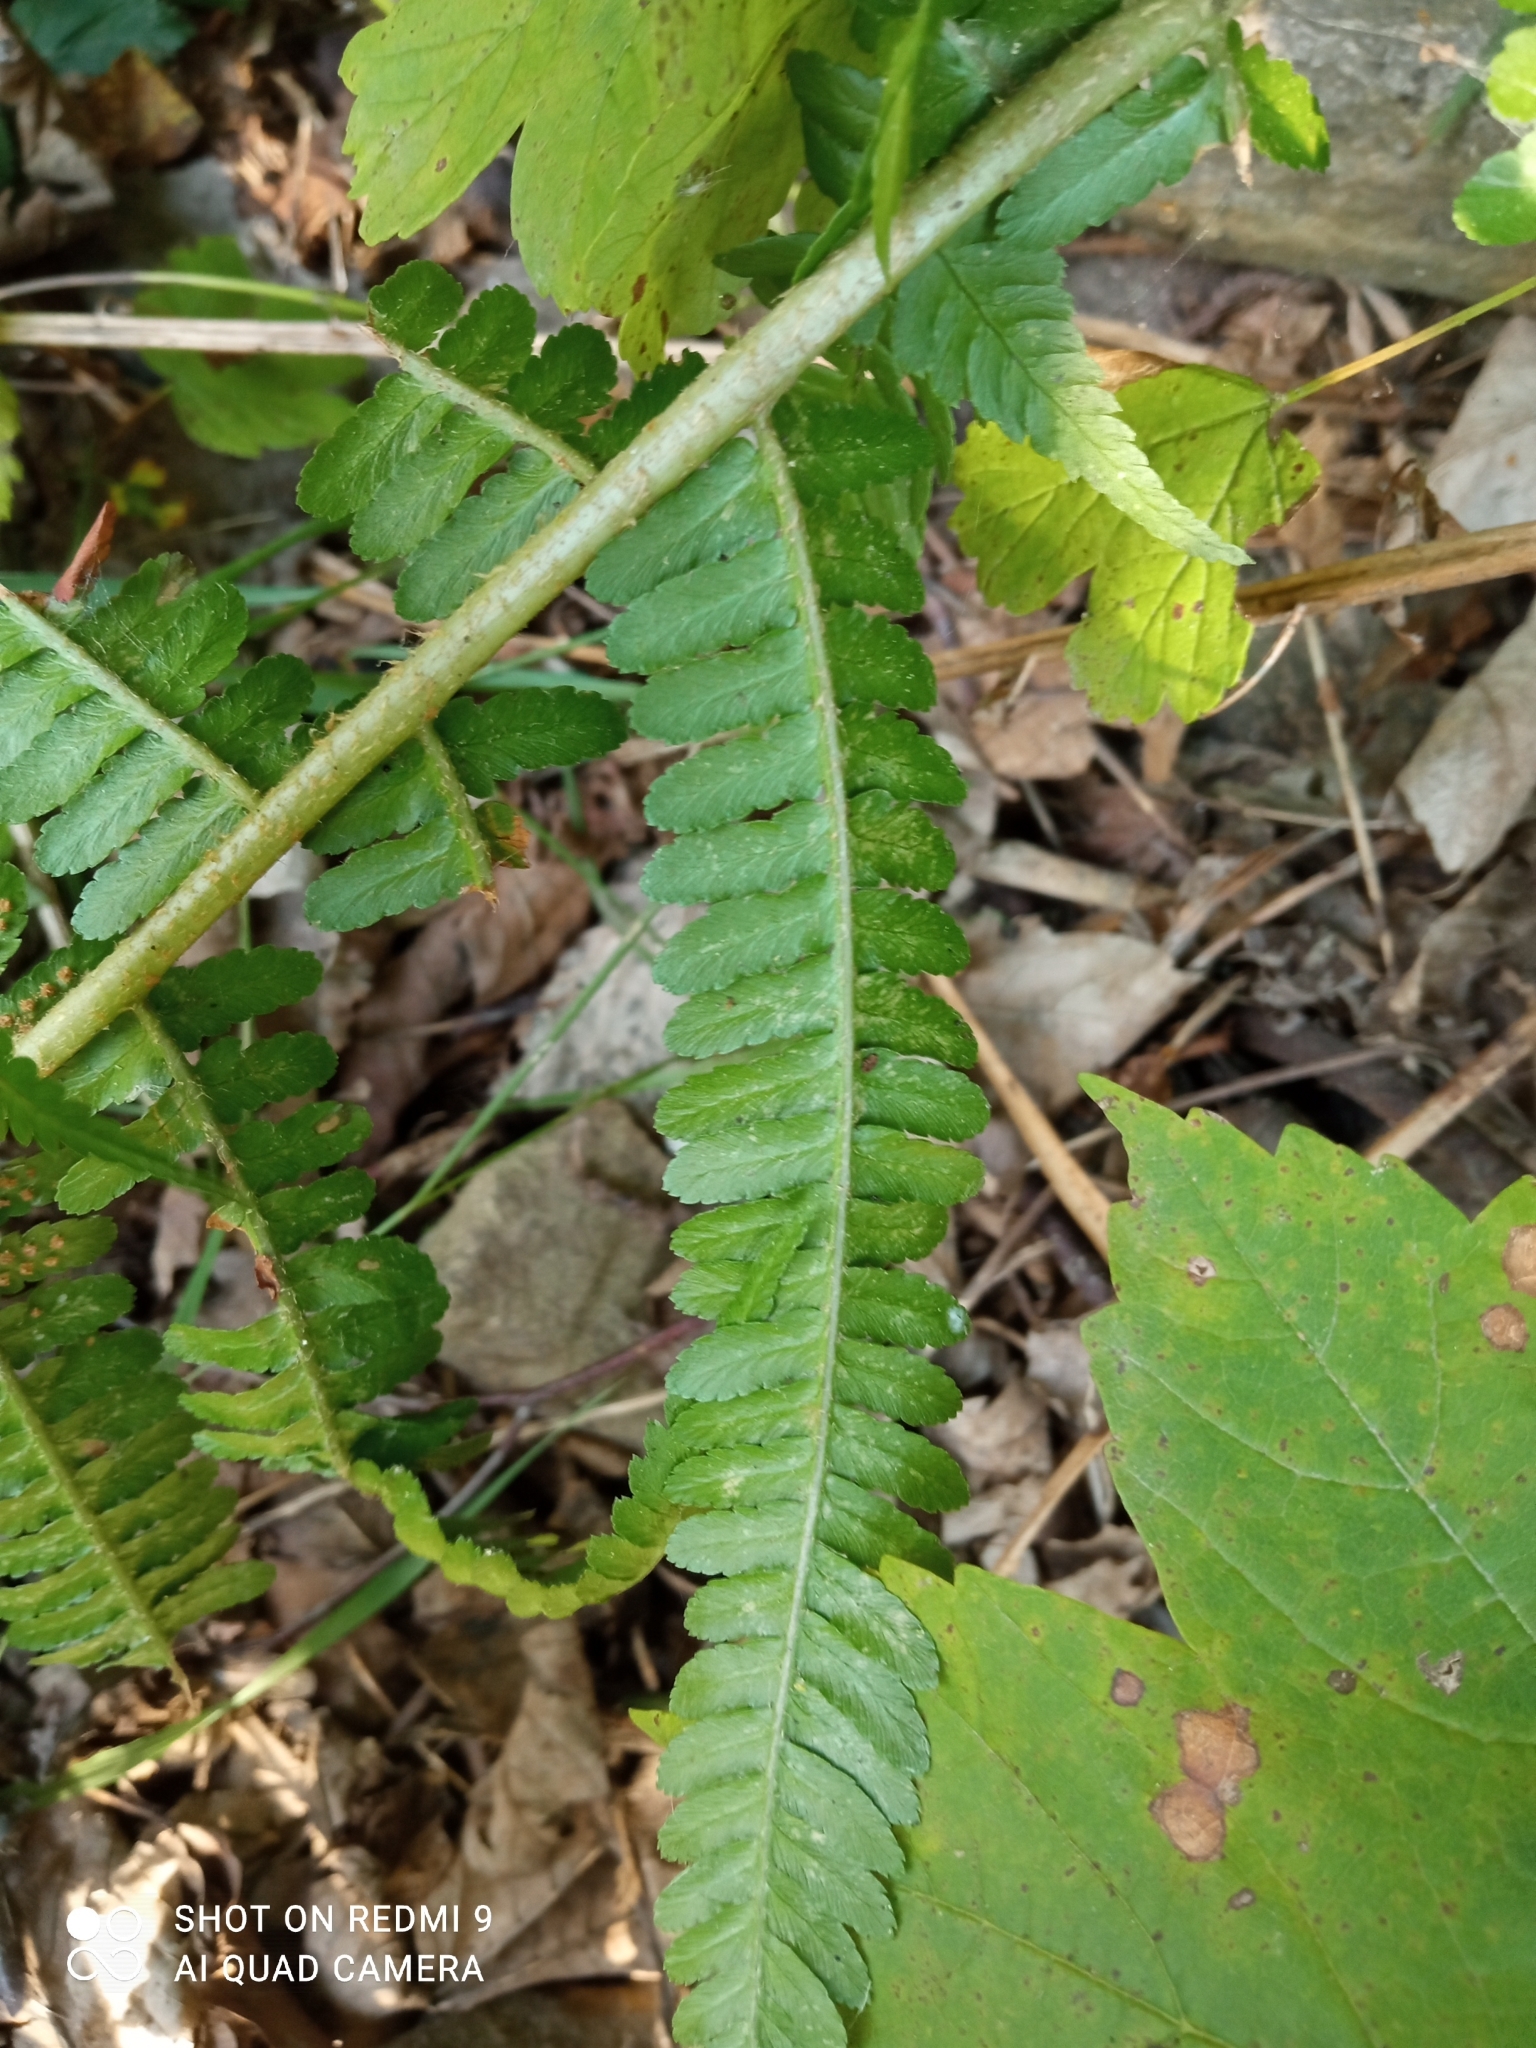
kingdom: Plantae
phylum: Tracheophyta
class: Polypodiopsida
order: Polypodiales
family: Dryopteridaceae
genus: Dryopteris
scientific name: Dryopteris filix-mas
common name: Male fern
